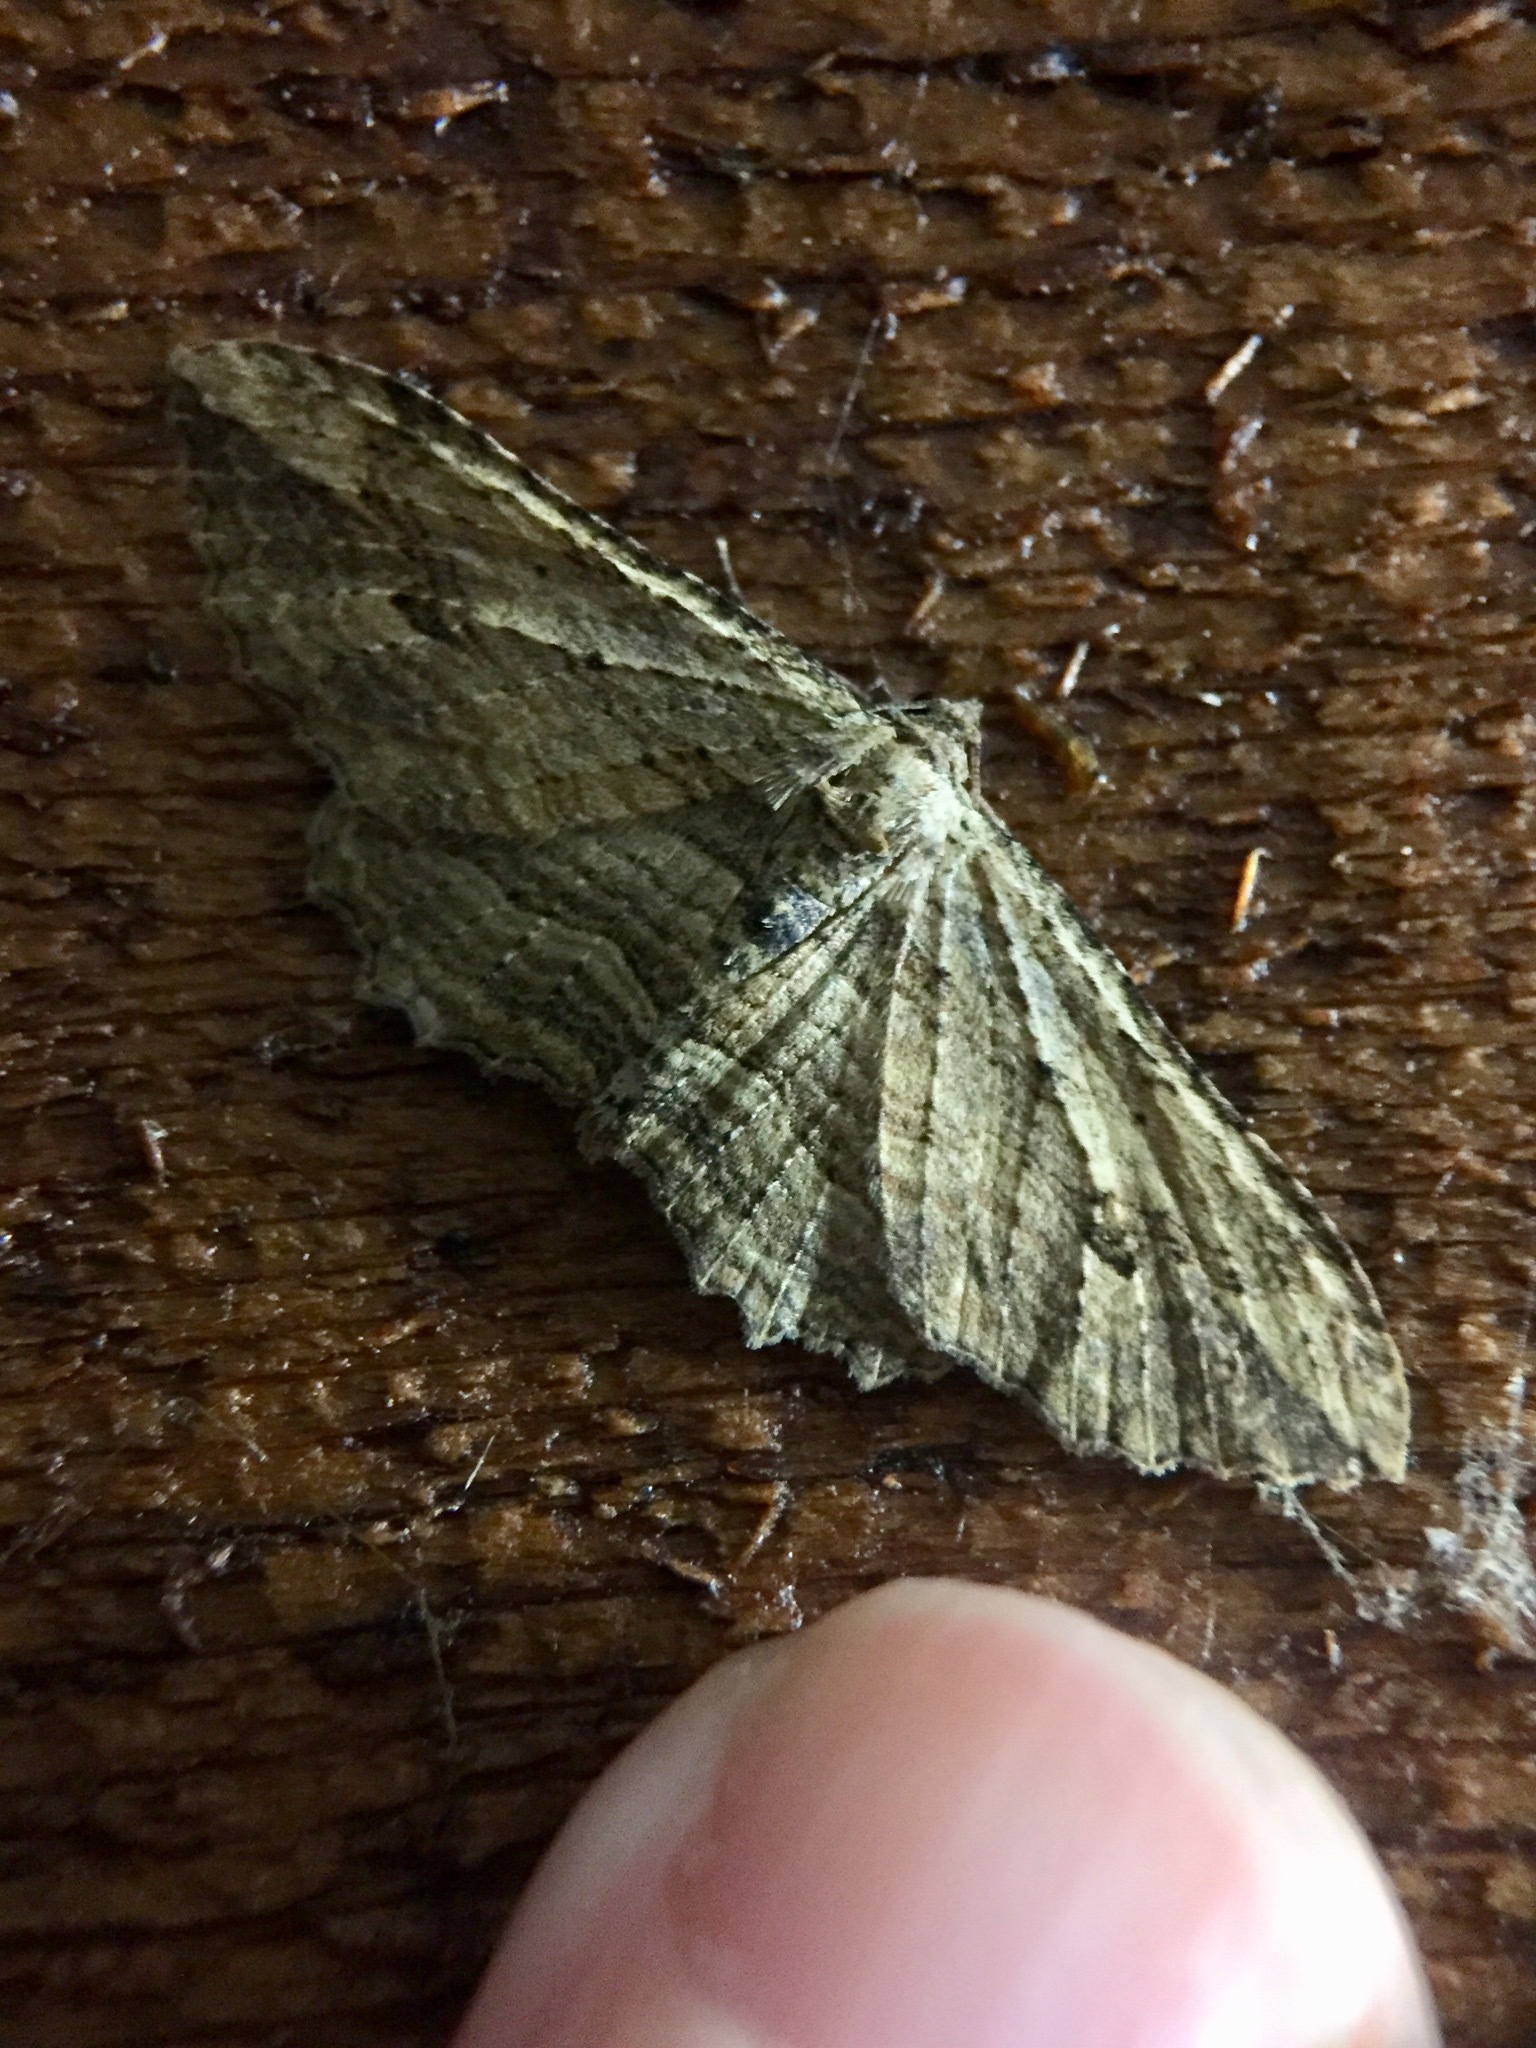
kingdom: Animalia
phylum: Arthropoda
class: Insecta
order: Lepidoptera
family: Geometridae
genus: Austrocidaria
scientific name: Austrocidaria bipartita
